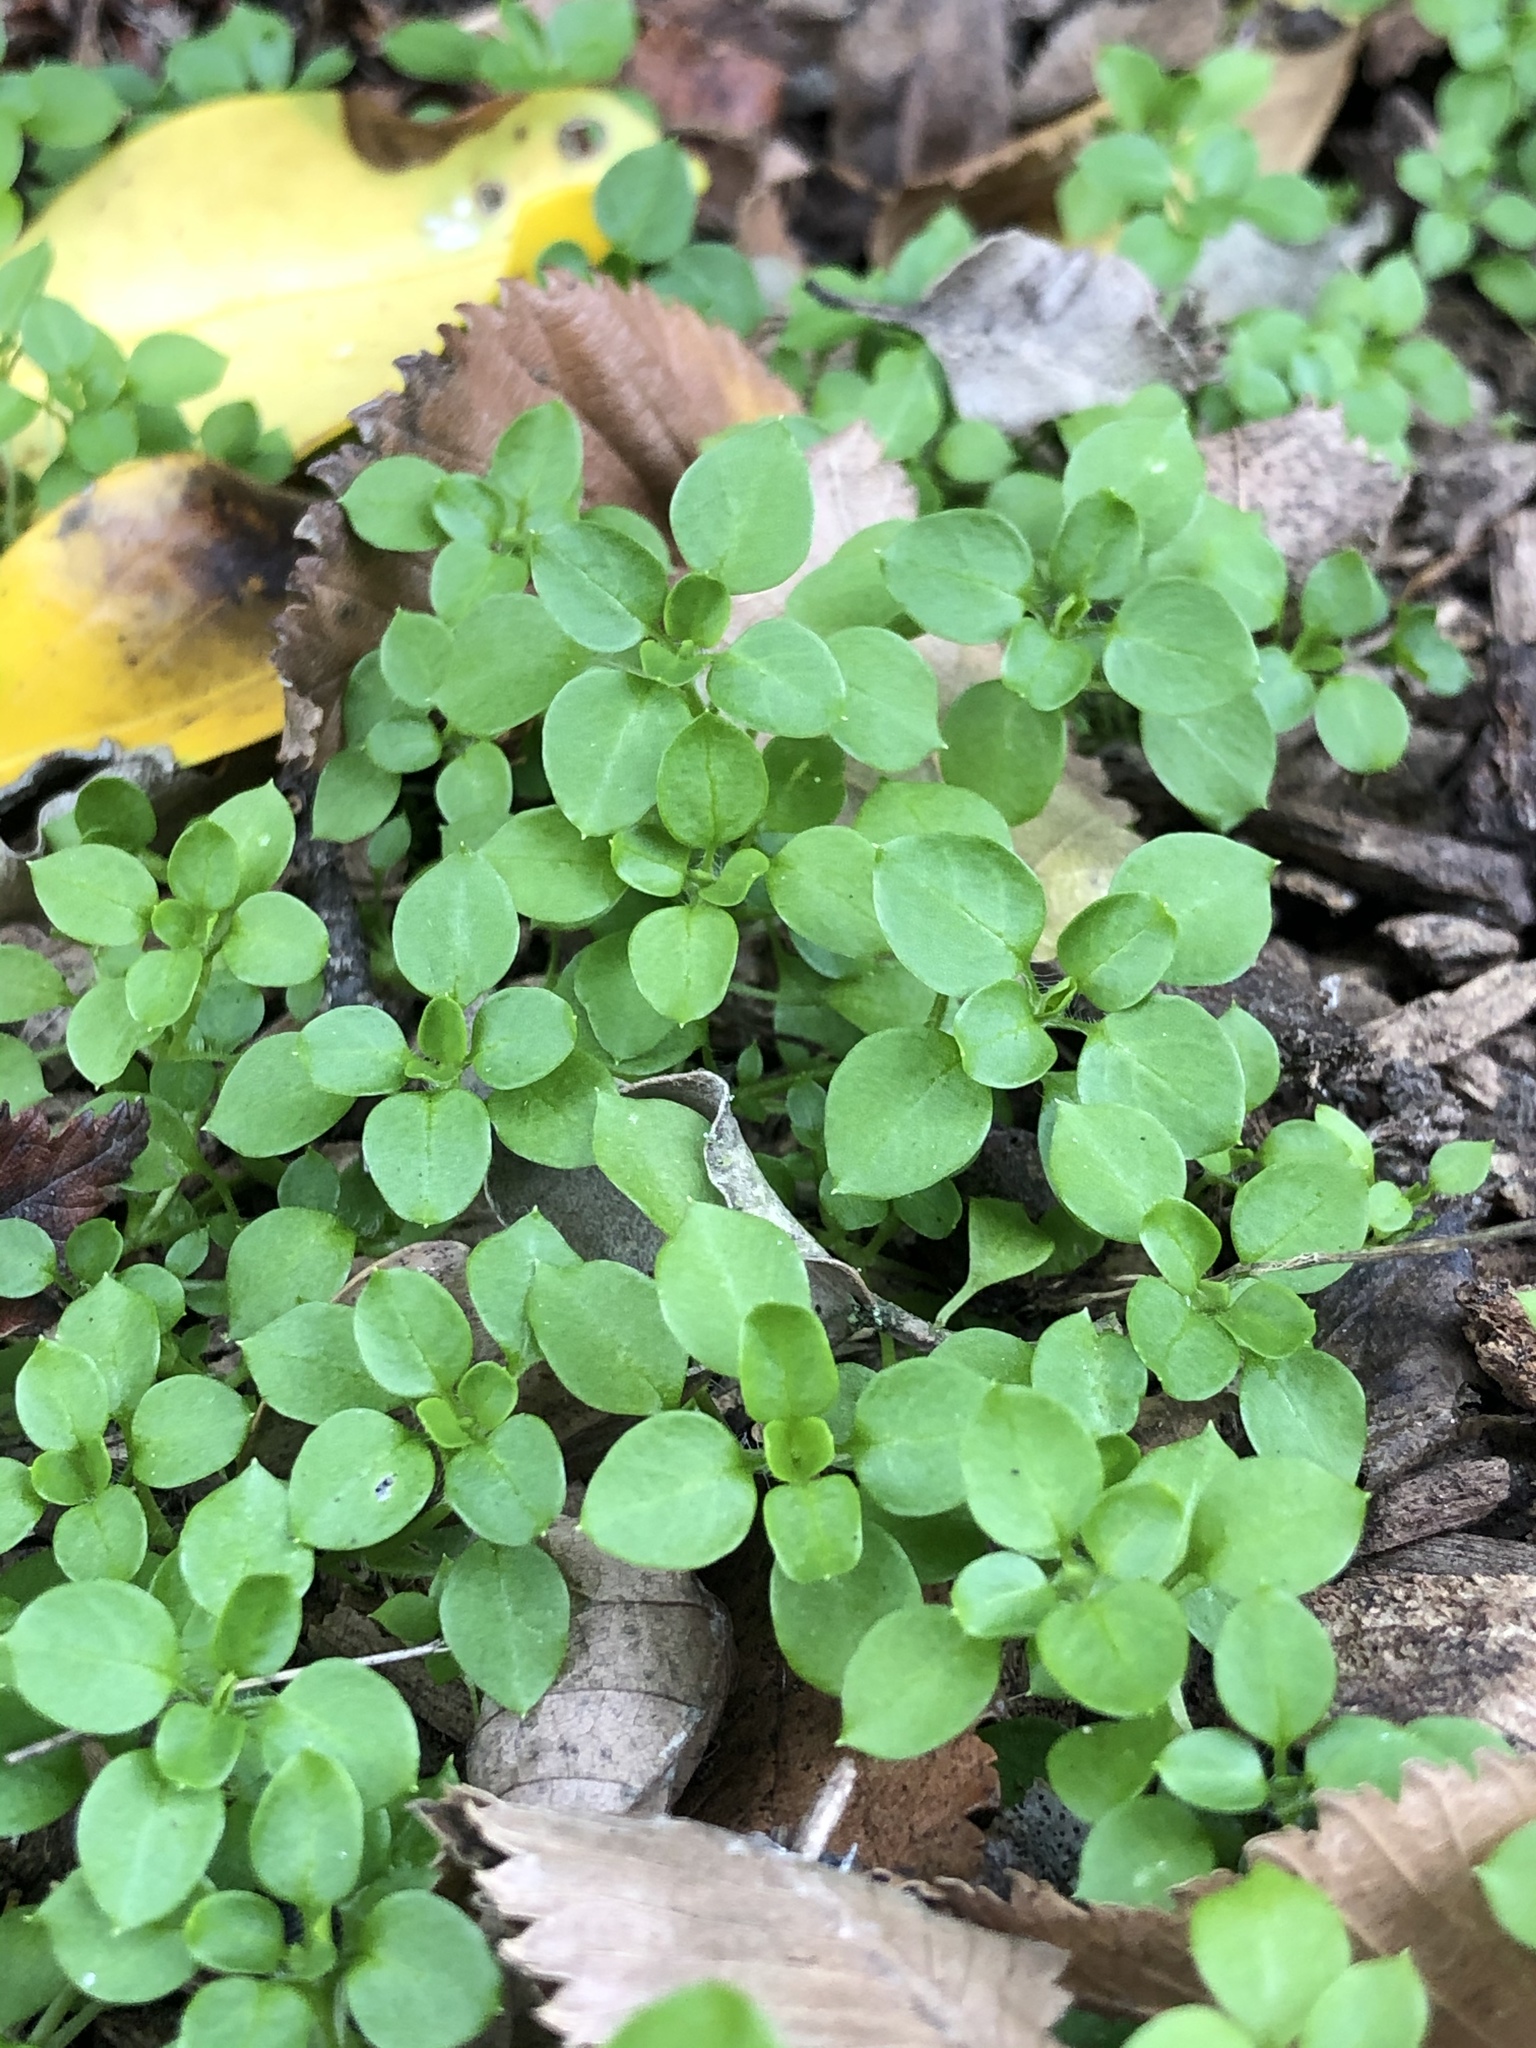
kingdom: Plantae
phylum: Tracheophyta
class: Magnoliopsida
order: Caryophyllales
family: Caryophyllaceae
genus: Stellaria
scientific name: Stellaria media
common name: Common chickweed
